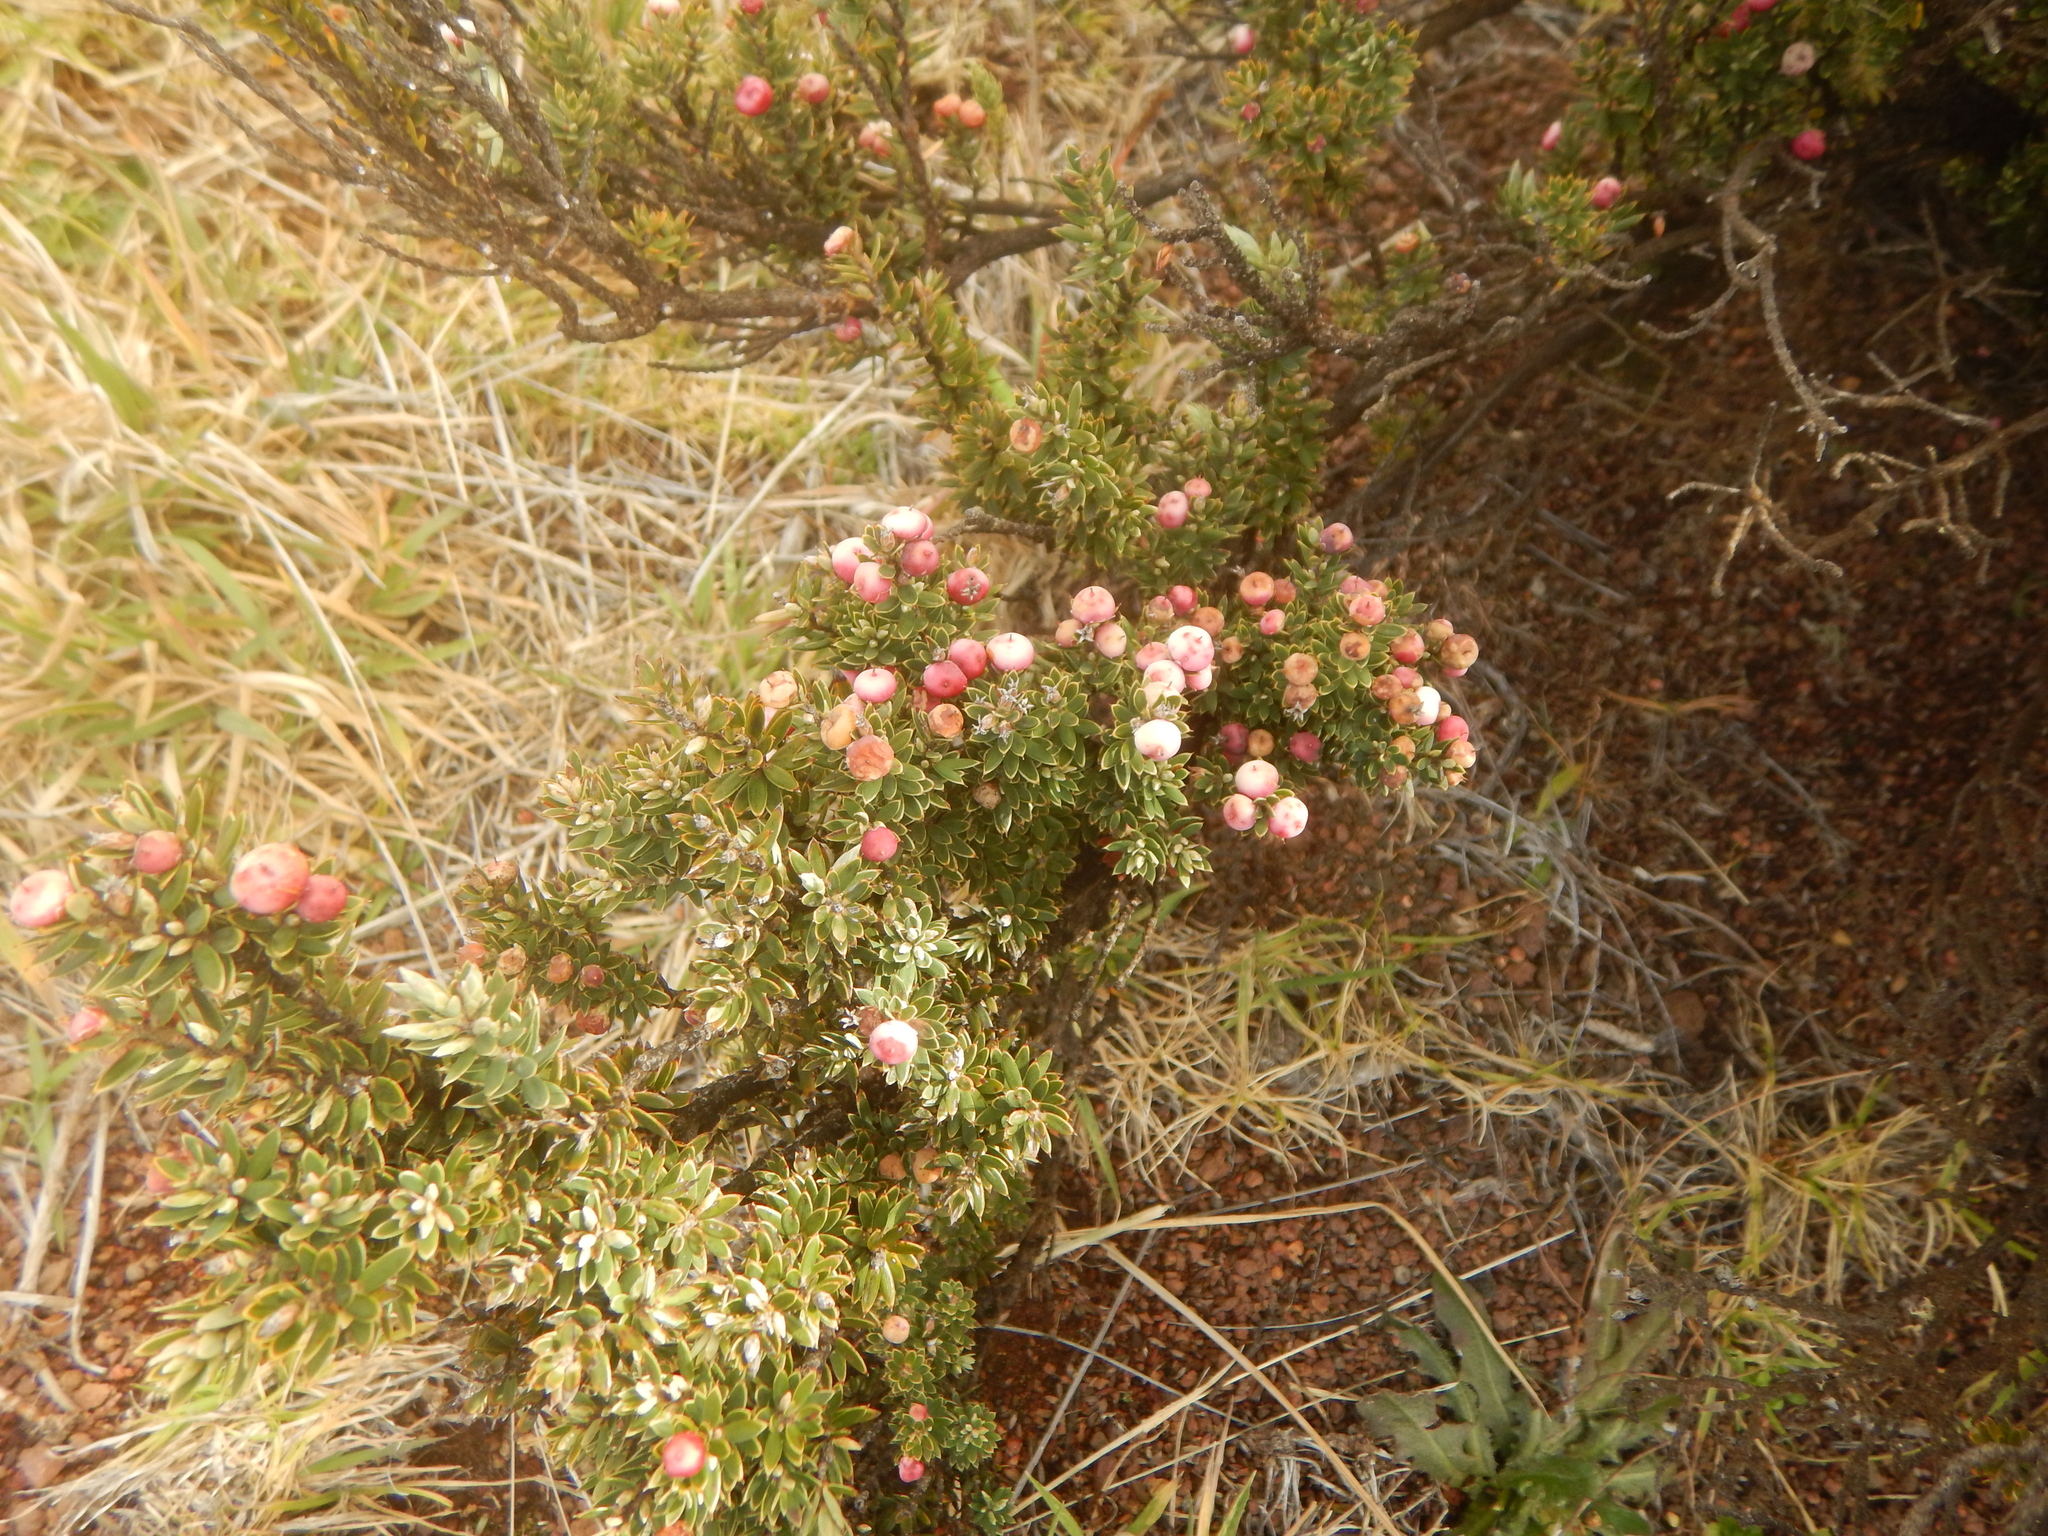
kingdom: Plantae
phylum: Tracheophyta
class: Magnoliopsida
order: Ericales
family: Ericaceae
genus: Leptecophylla
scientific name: Leptecophylla tameiameiae
